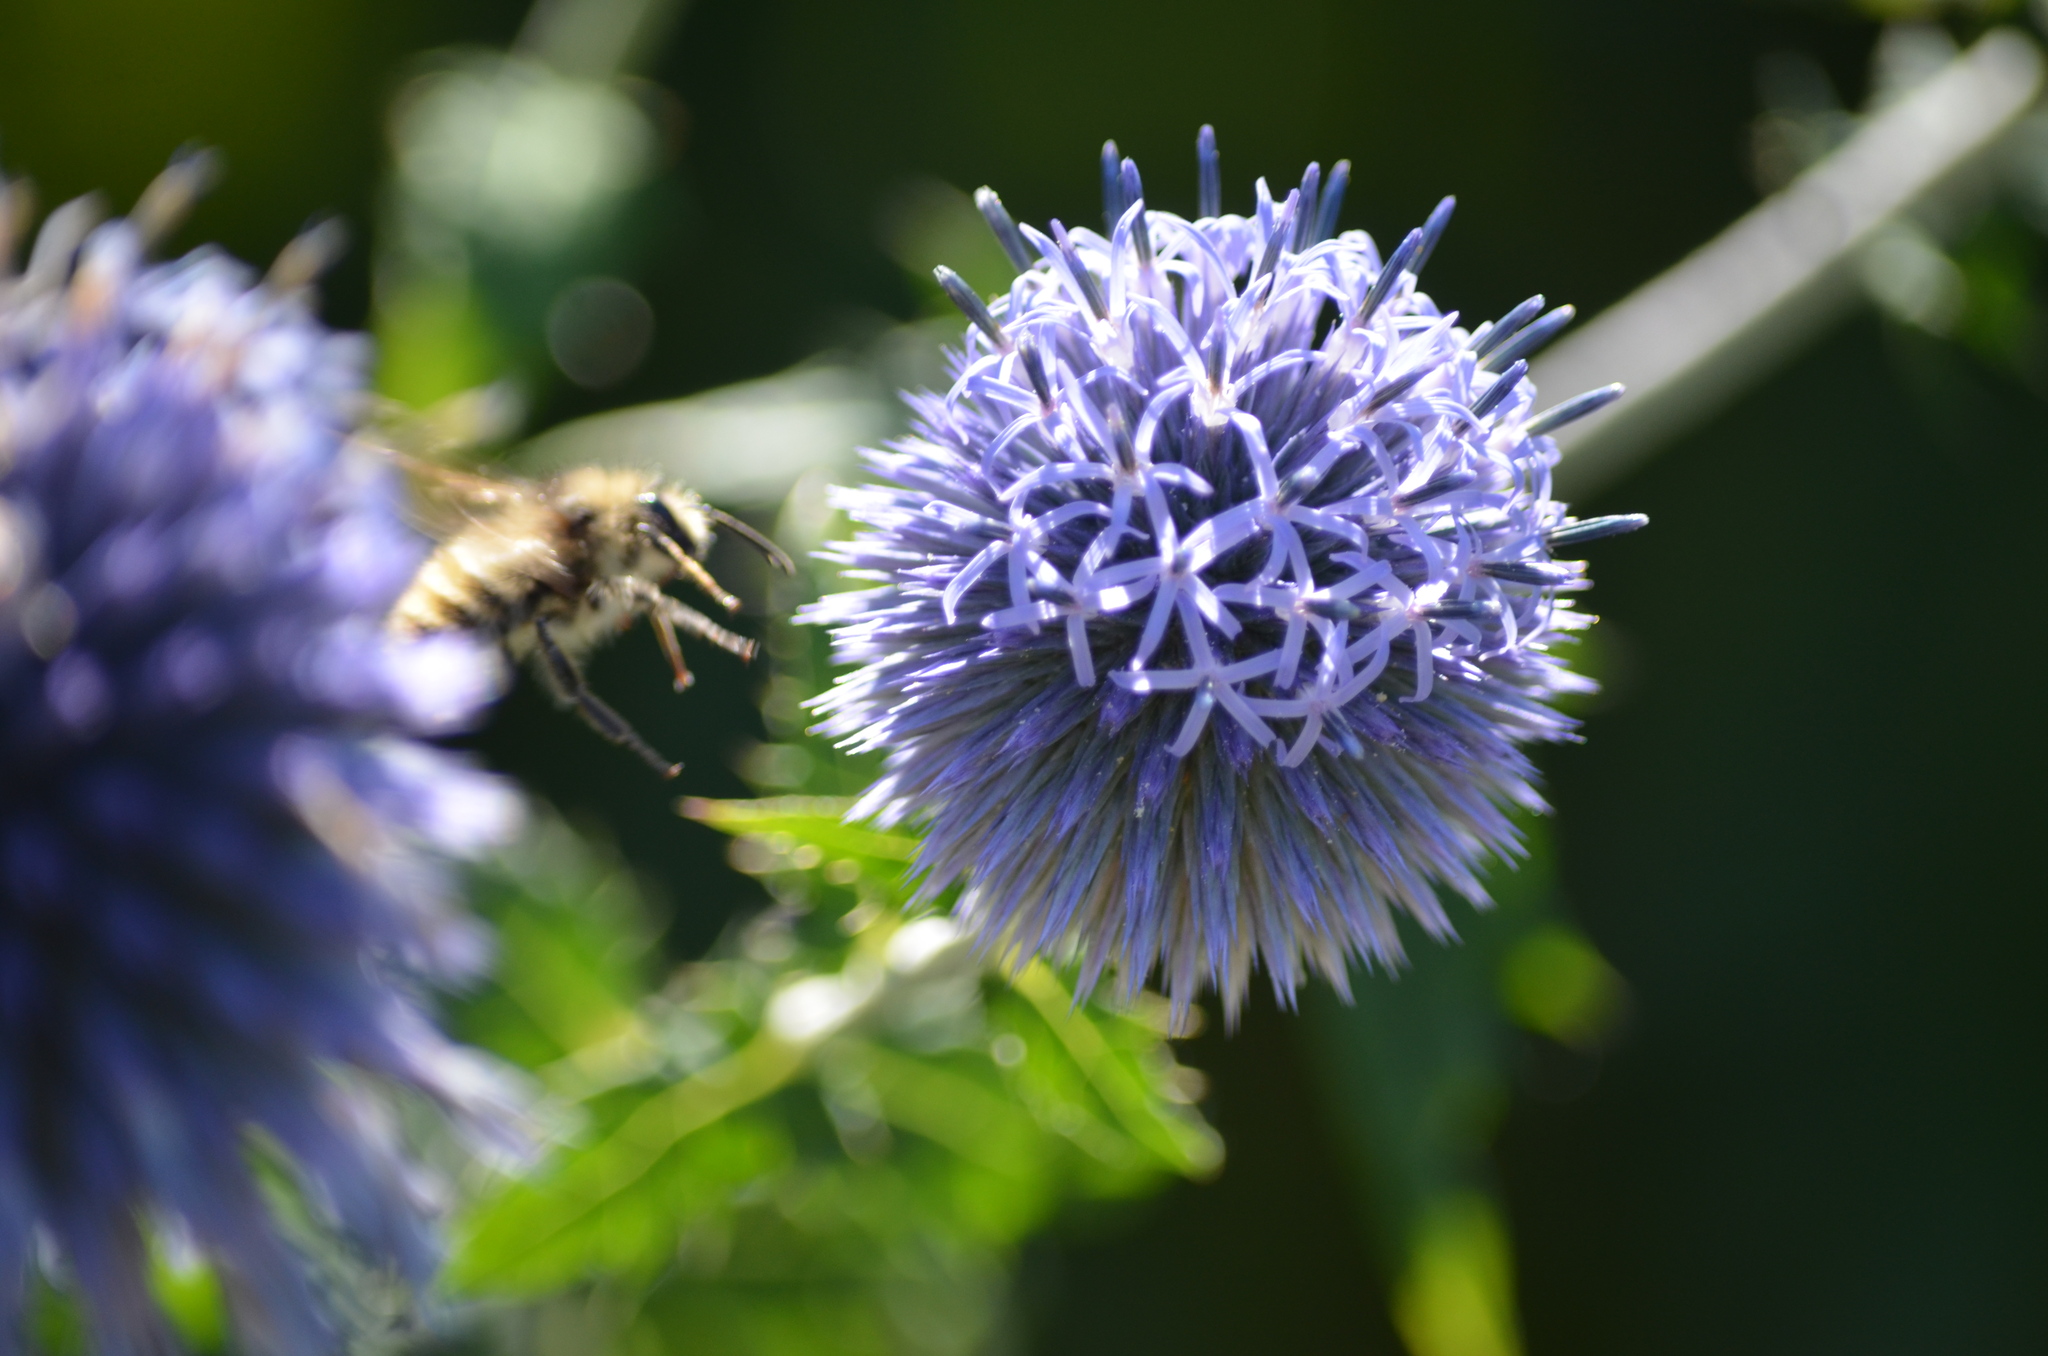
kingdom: Animalia
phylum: Arthropoda
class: Insecta
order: Hymenoptera
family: Apidae
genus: Bombus
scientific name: Bombus flavifrons
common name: Yellow head bumble bee
